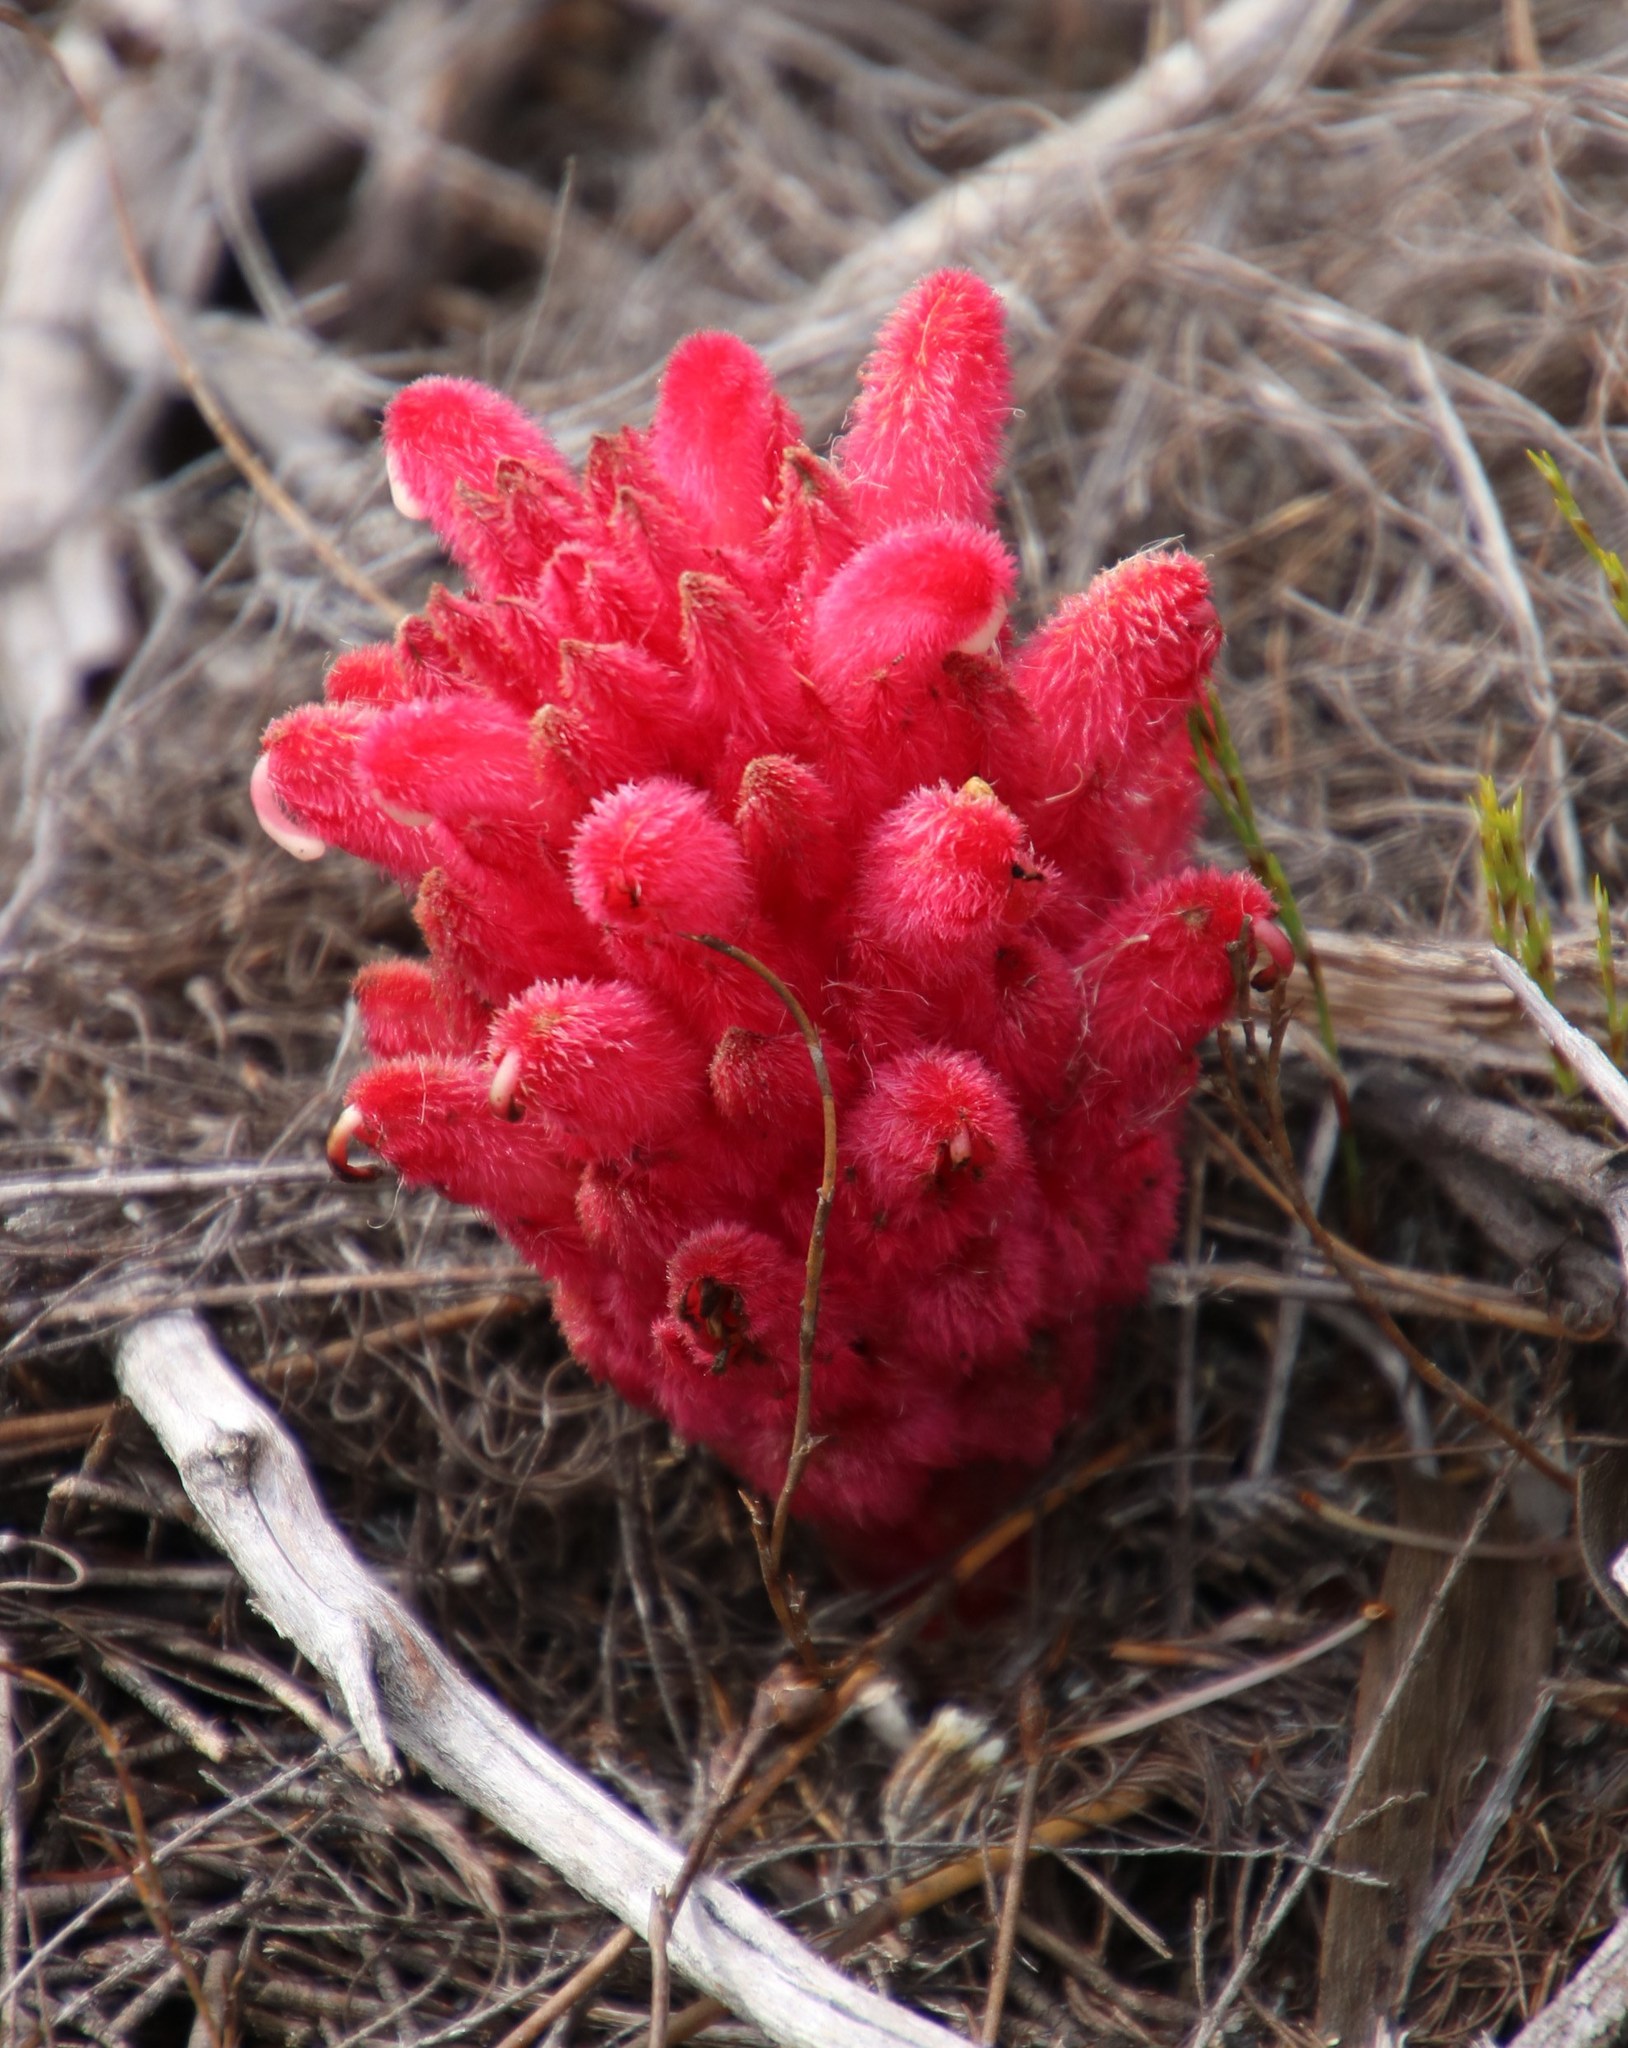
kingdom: Plantae
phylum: Tracheophyta
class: Magnoliopsida
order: Lamiales
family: Orobanchaceae
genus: Hyobanche
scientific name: Hyobanche sanguinea
